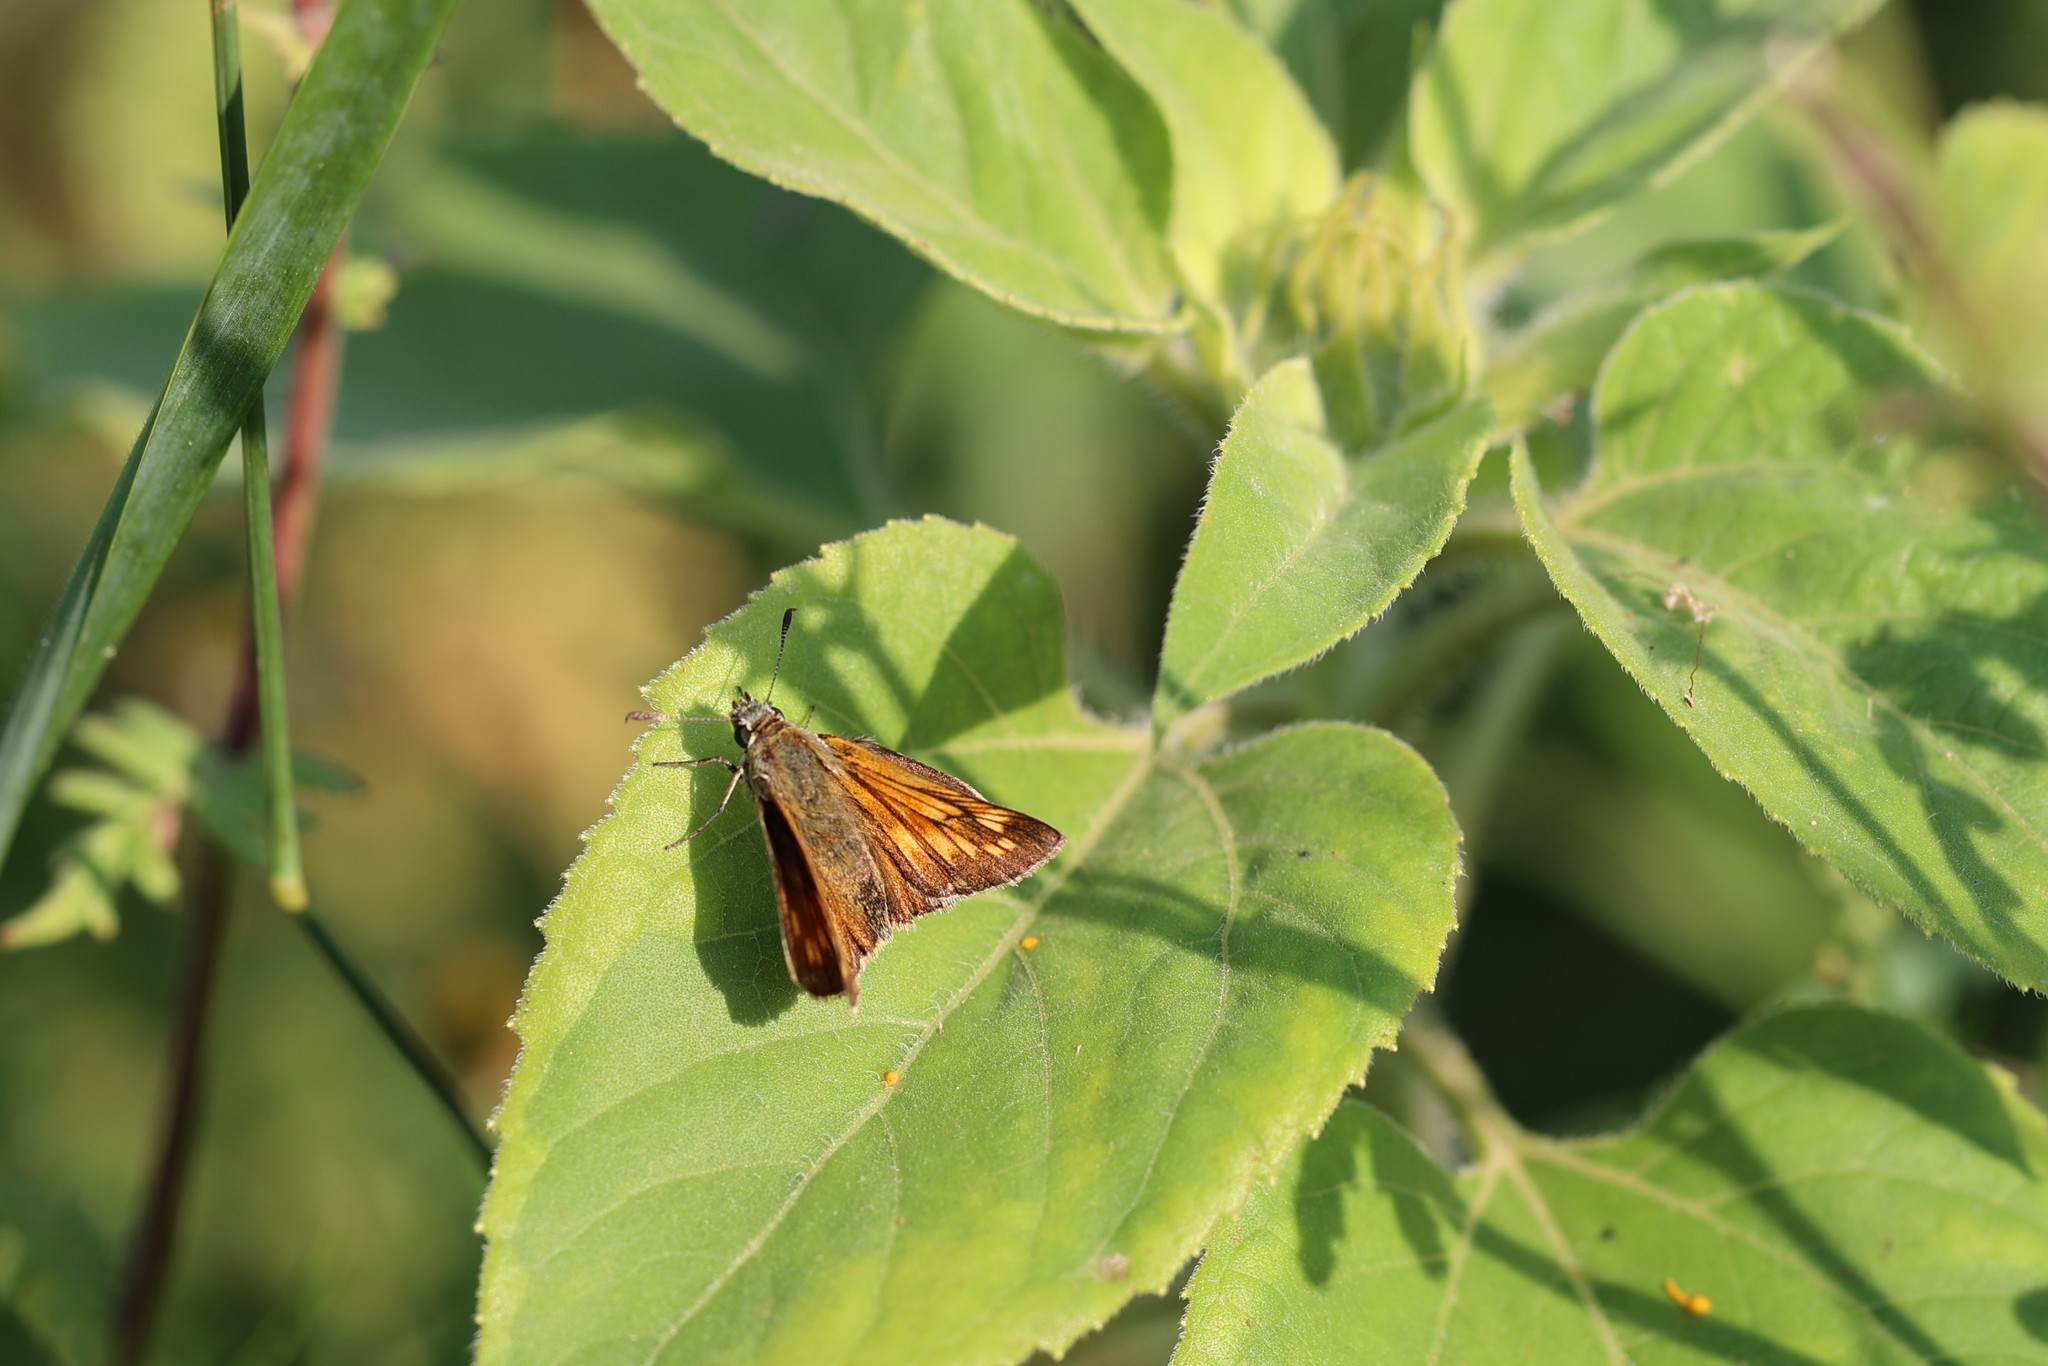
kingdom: Animalia
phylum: Arthropoda
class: Insecta
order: Lepidoptera
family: Hesperiidae
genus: Ochlodes
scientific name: Ochlodes venata
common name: Large skipper
